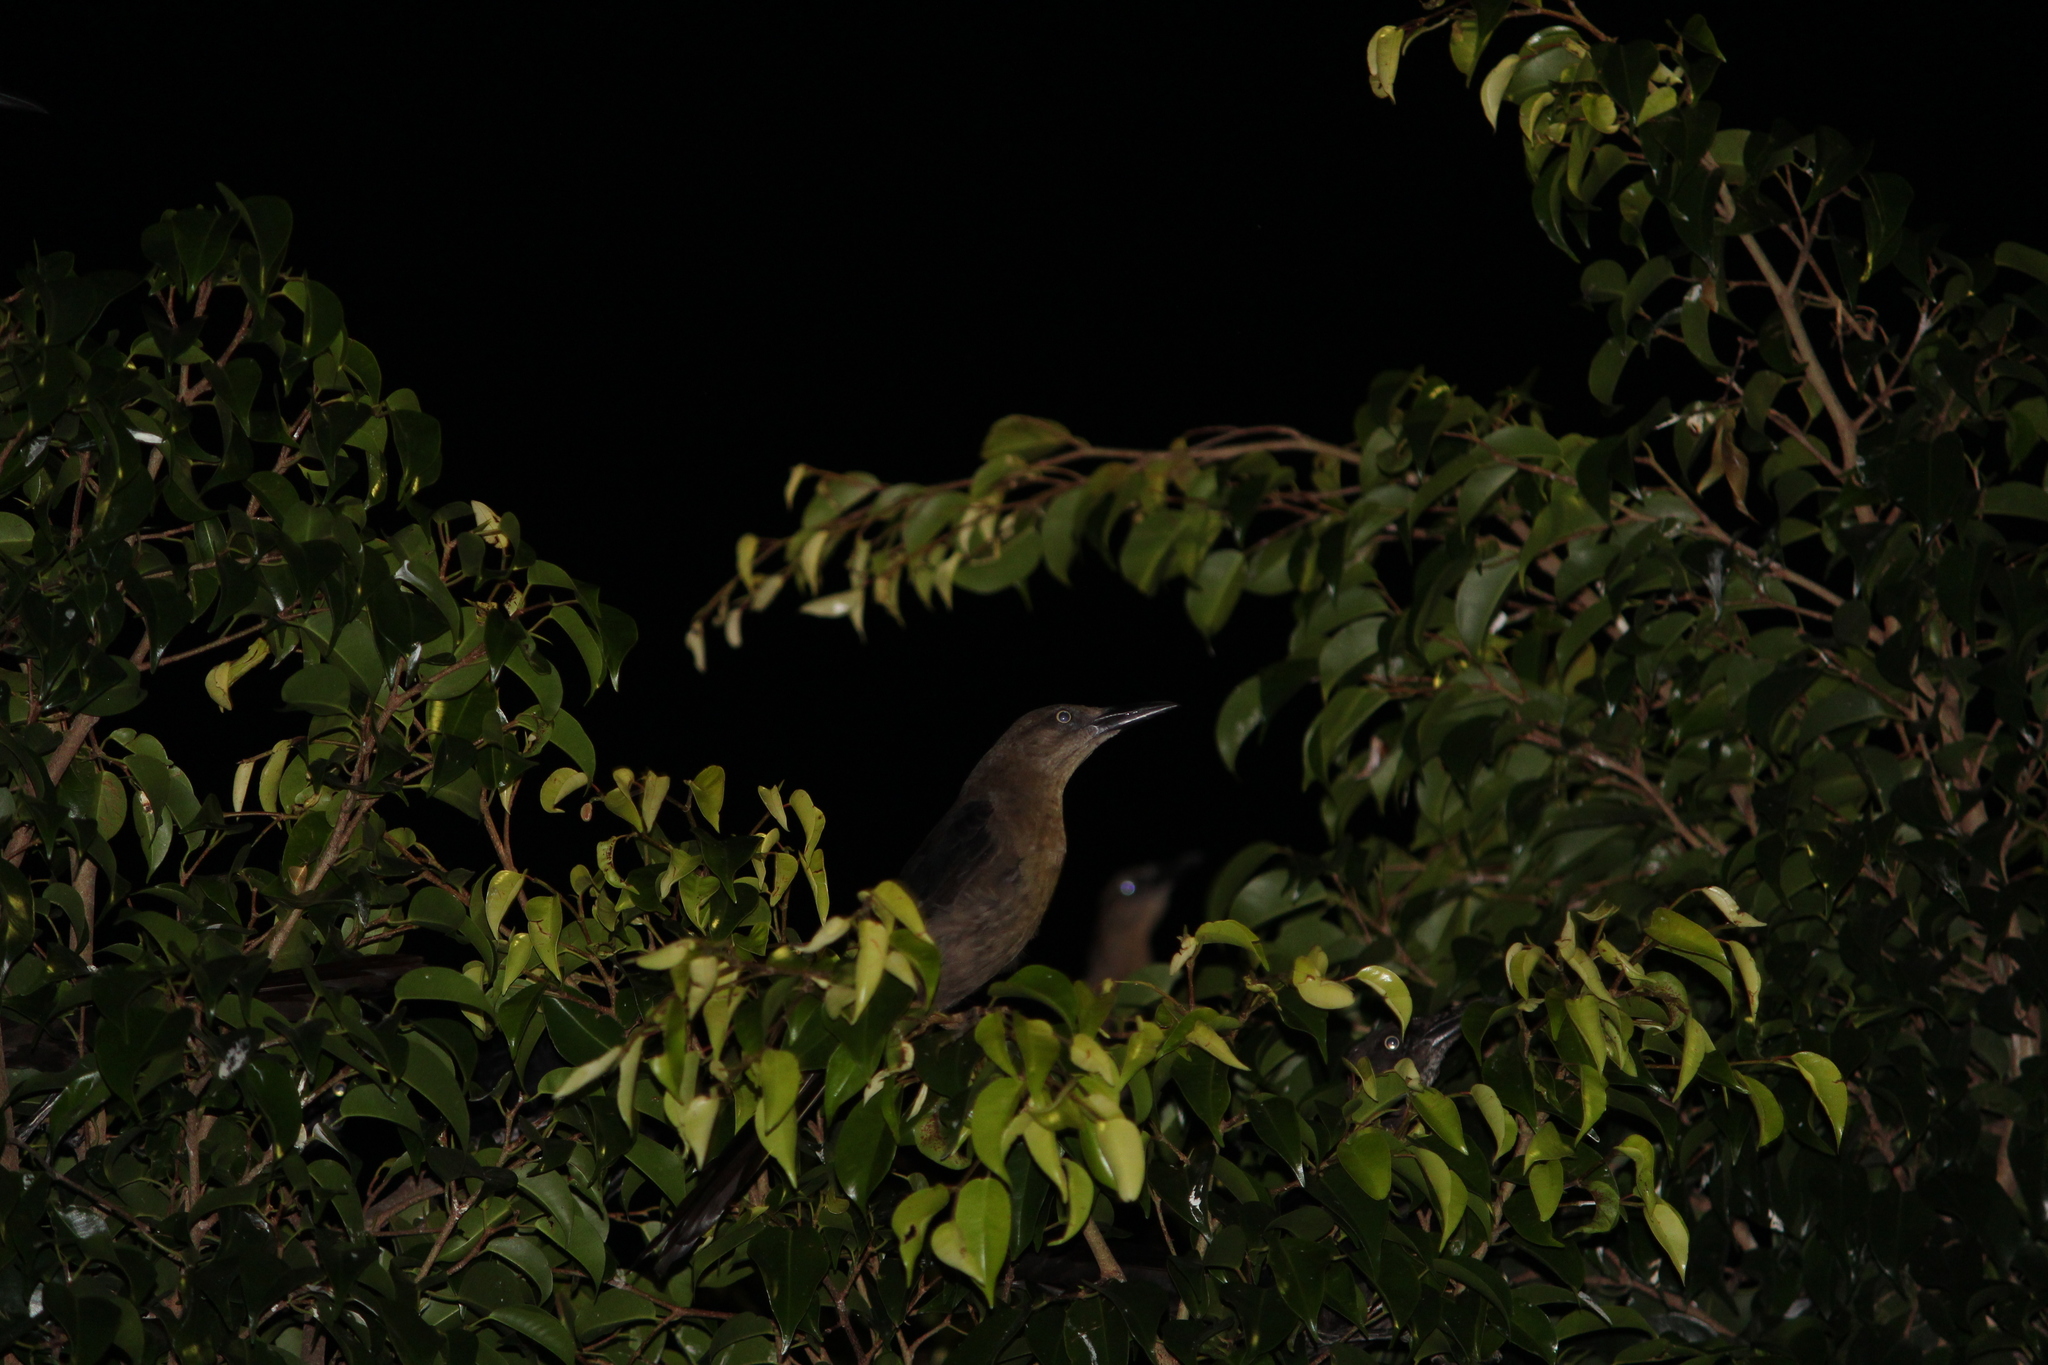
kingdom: Animalia
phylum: Chordata
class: Aves
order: Passeriformes
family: Icteridae
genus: Quiscalus
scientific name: Quiscalus mexicanus
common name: Great-tailed grackle
